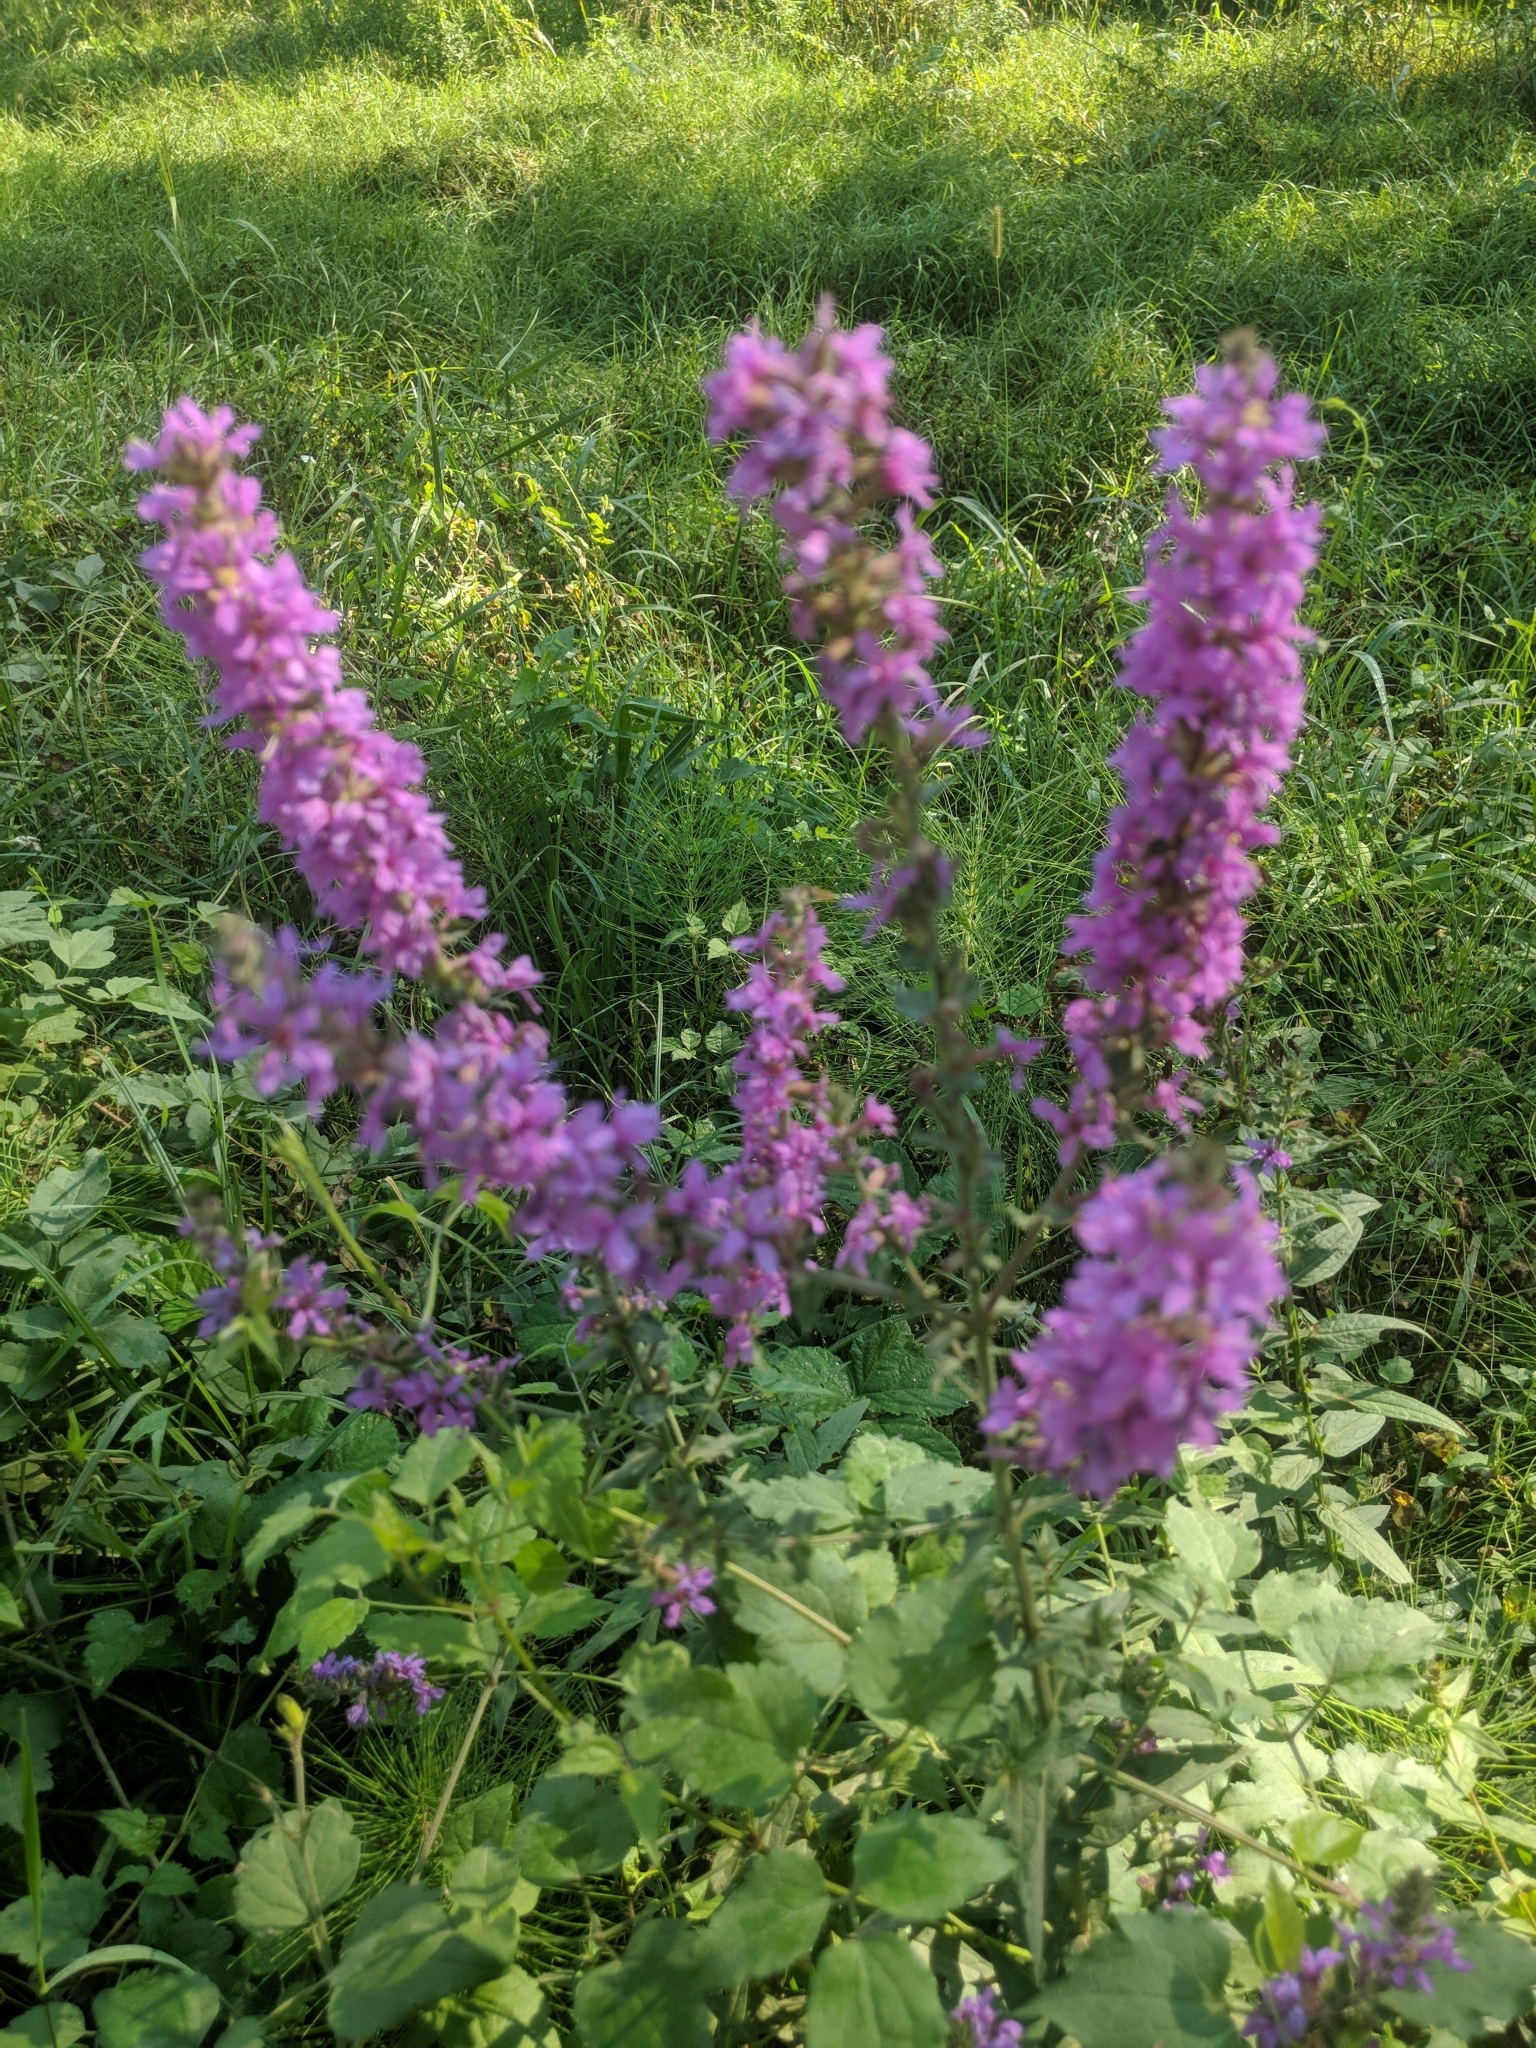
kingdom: Plantae
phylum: Tracheophyta
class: Magnoliopsida
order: Myrtales
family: Lythraceae
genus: Lythrum
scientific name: Lythrum salicaria
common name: Purple loosestrife
